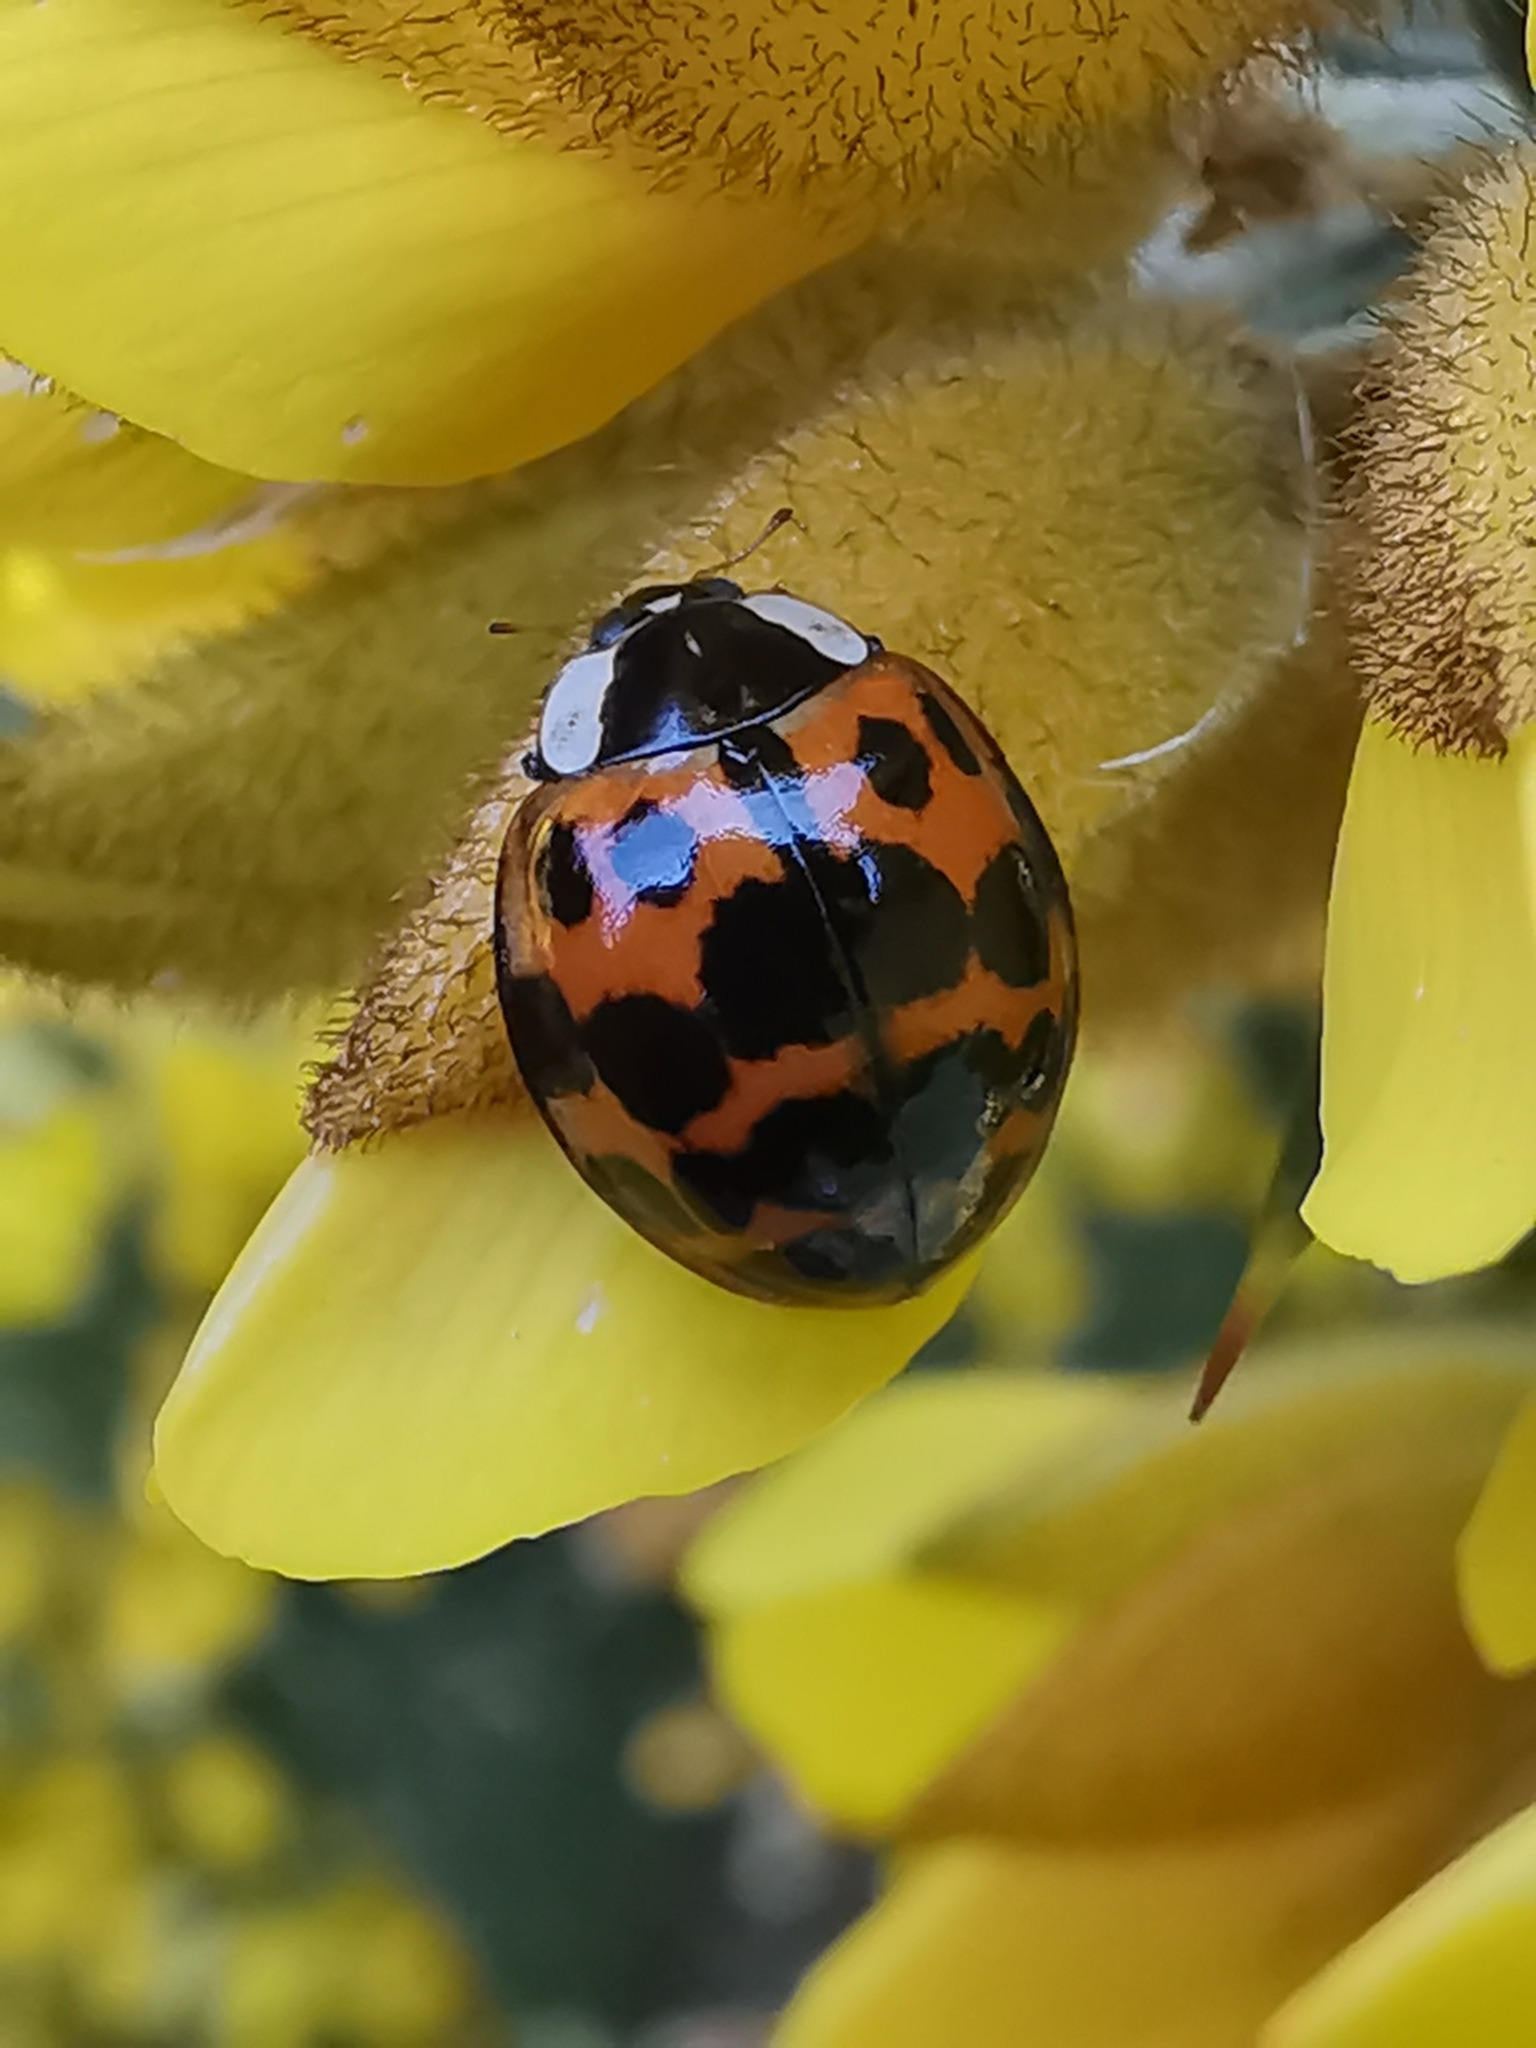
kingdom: Animalia
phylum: Arthropoda
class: Insecta
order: Coleoptera
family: Coccinellidae
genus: Harmonia
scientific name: Harmonia axyridis
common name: Harlequin ladybird
